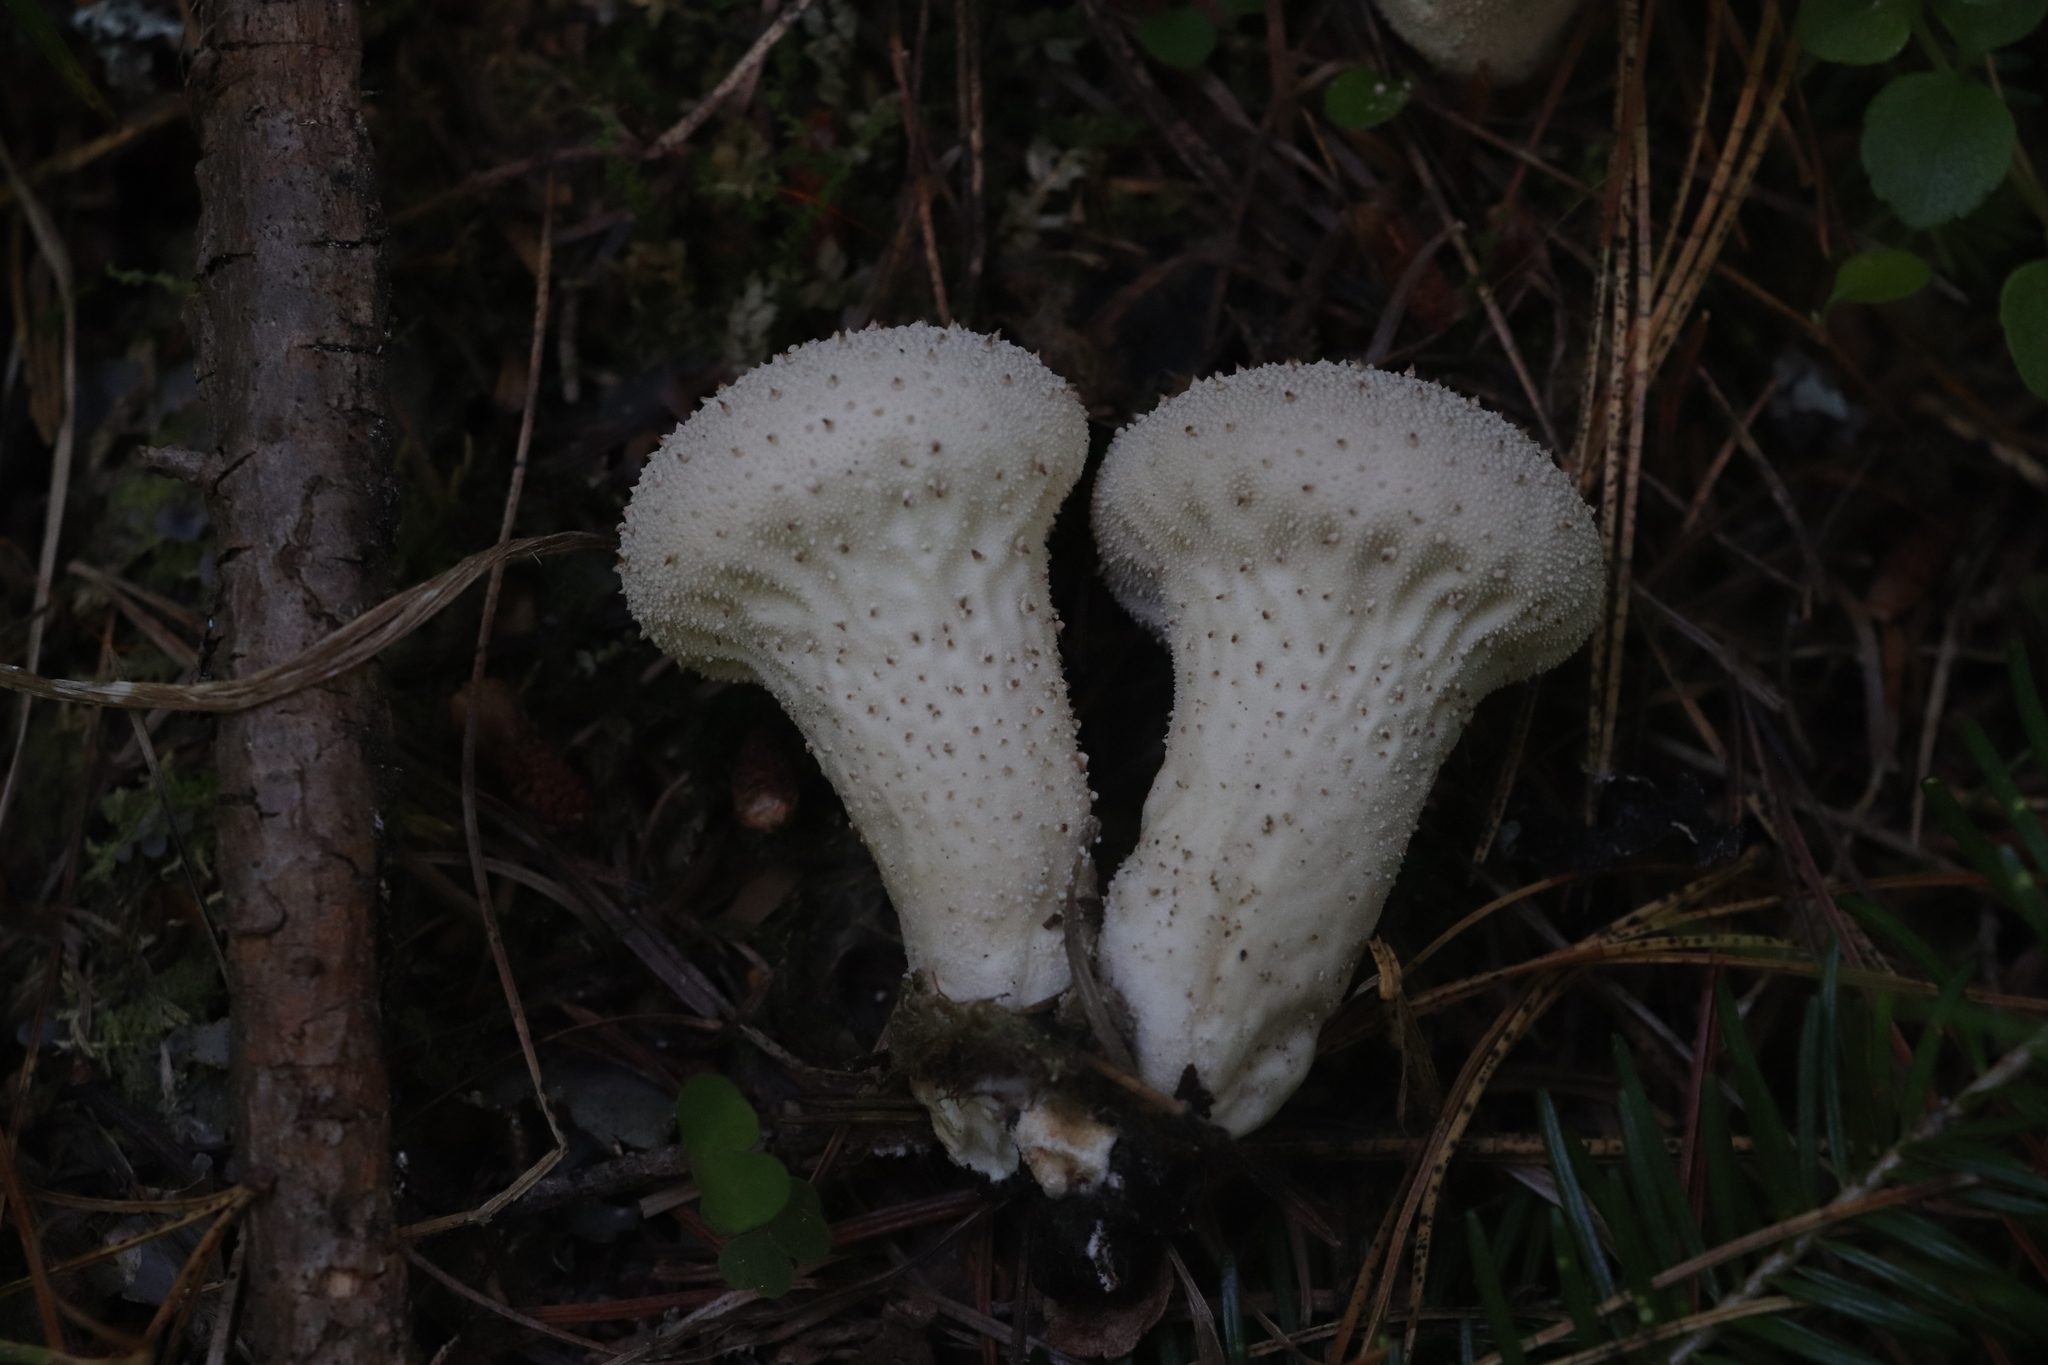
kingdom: Fungi
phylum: Basidiomycota
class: Agaricomycetes
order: Agaricales
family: Lycoperdaceae
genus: Lycoperdon
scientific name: Lycoperdon perlatum
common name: Common puffball
